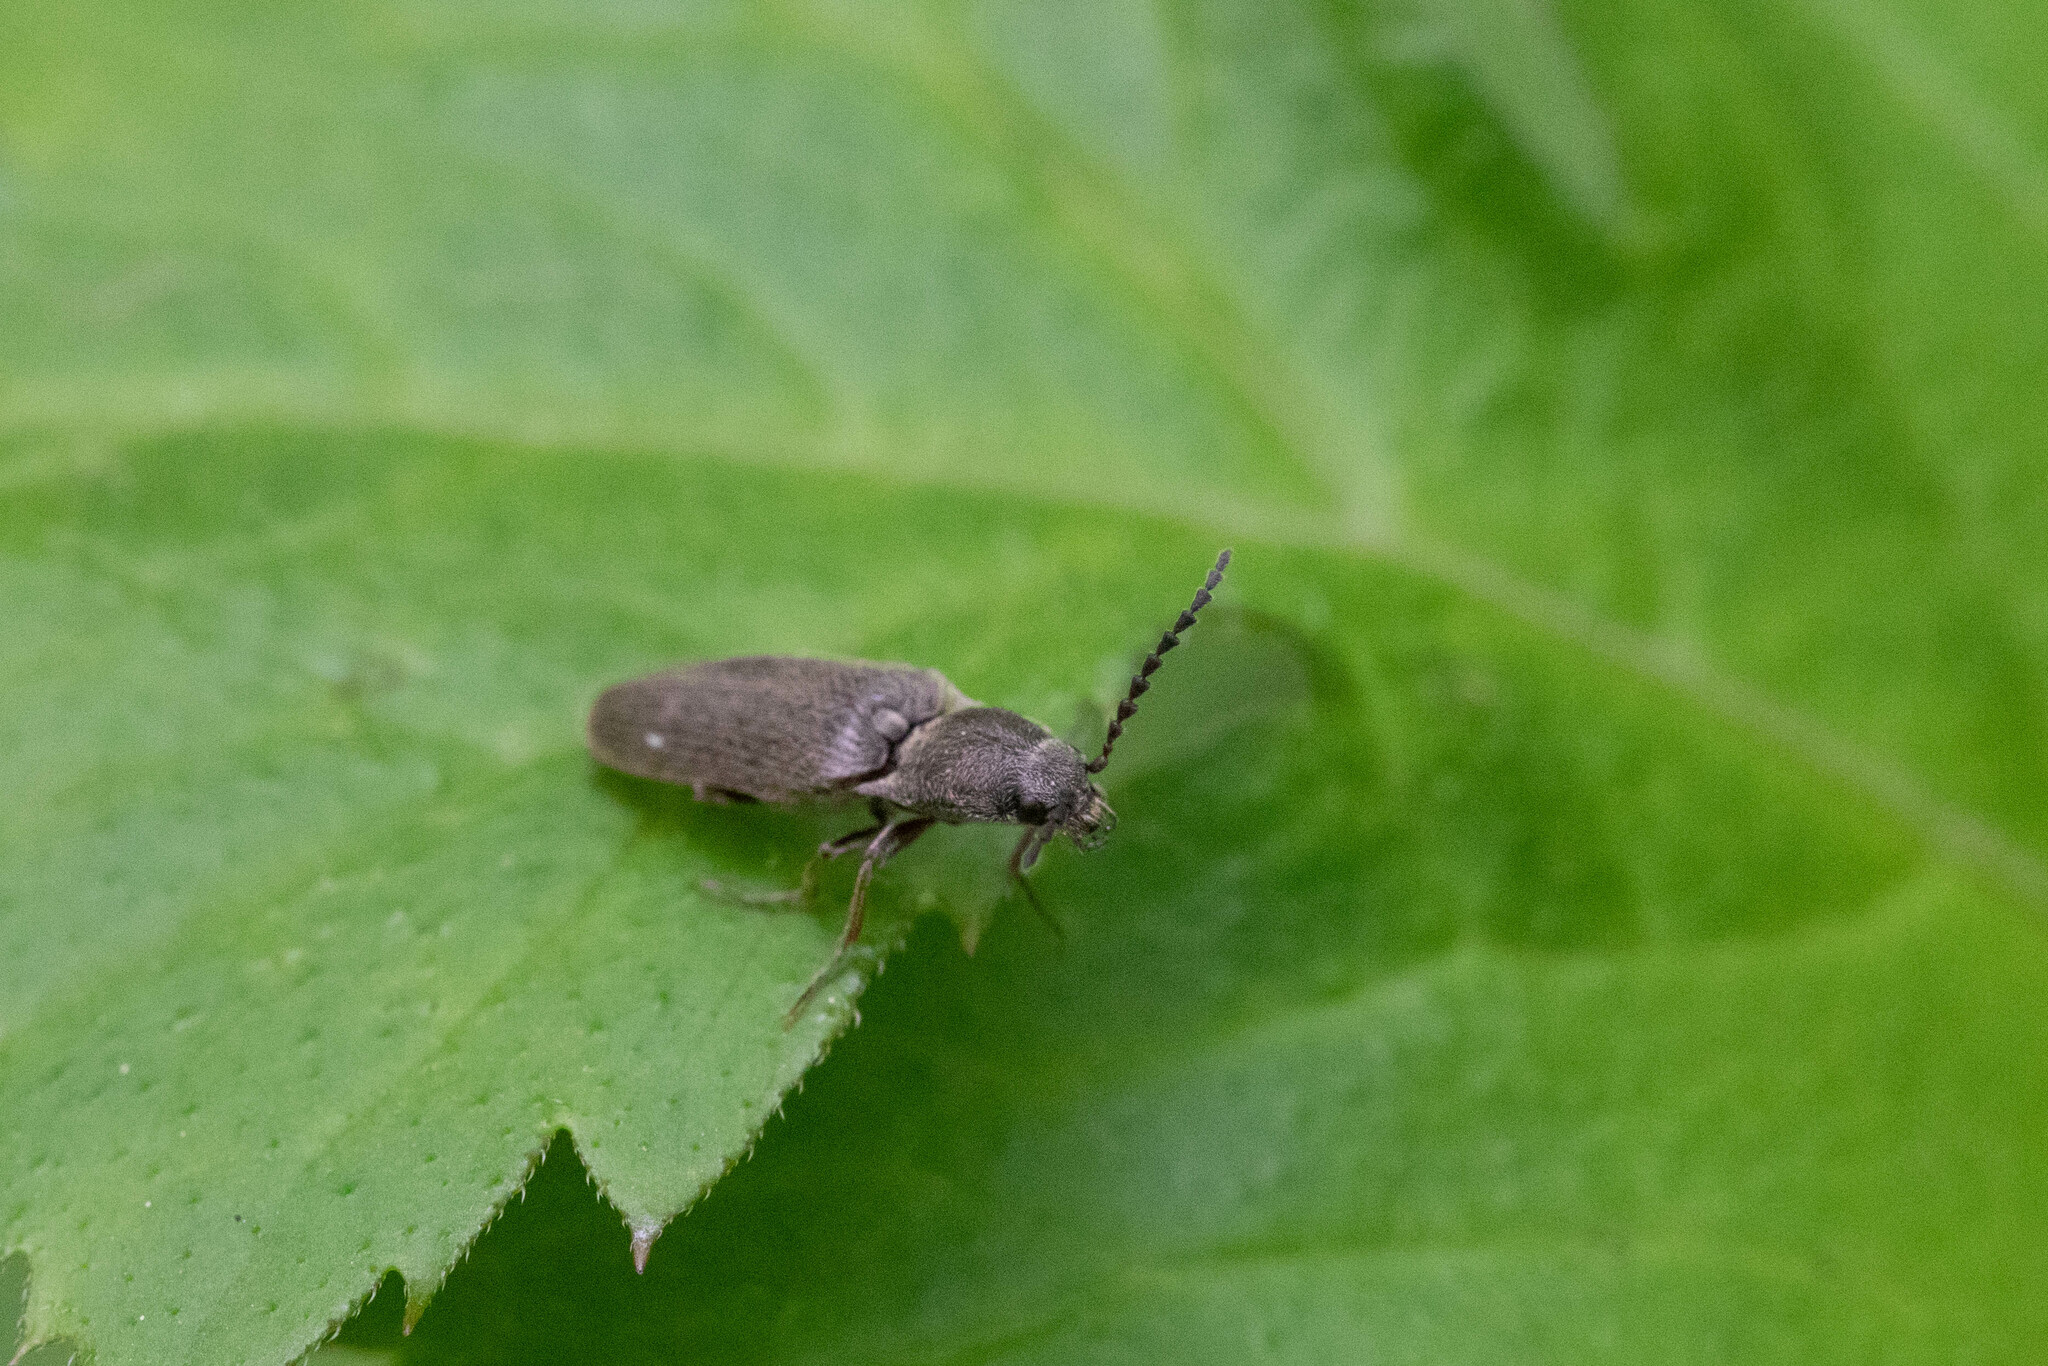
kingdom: Animalia
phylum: Arthropoda
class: Insecta
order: Coleoptera
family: Elateridae
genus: Sylvanelater
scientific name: Sylvanelater cylindriformis
